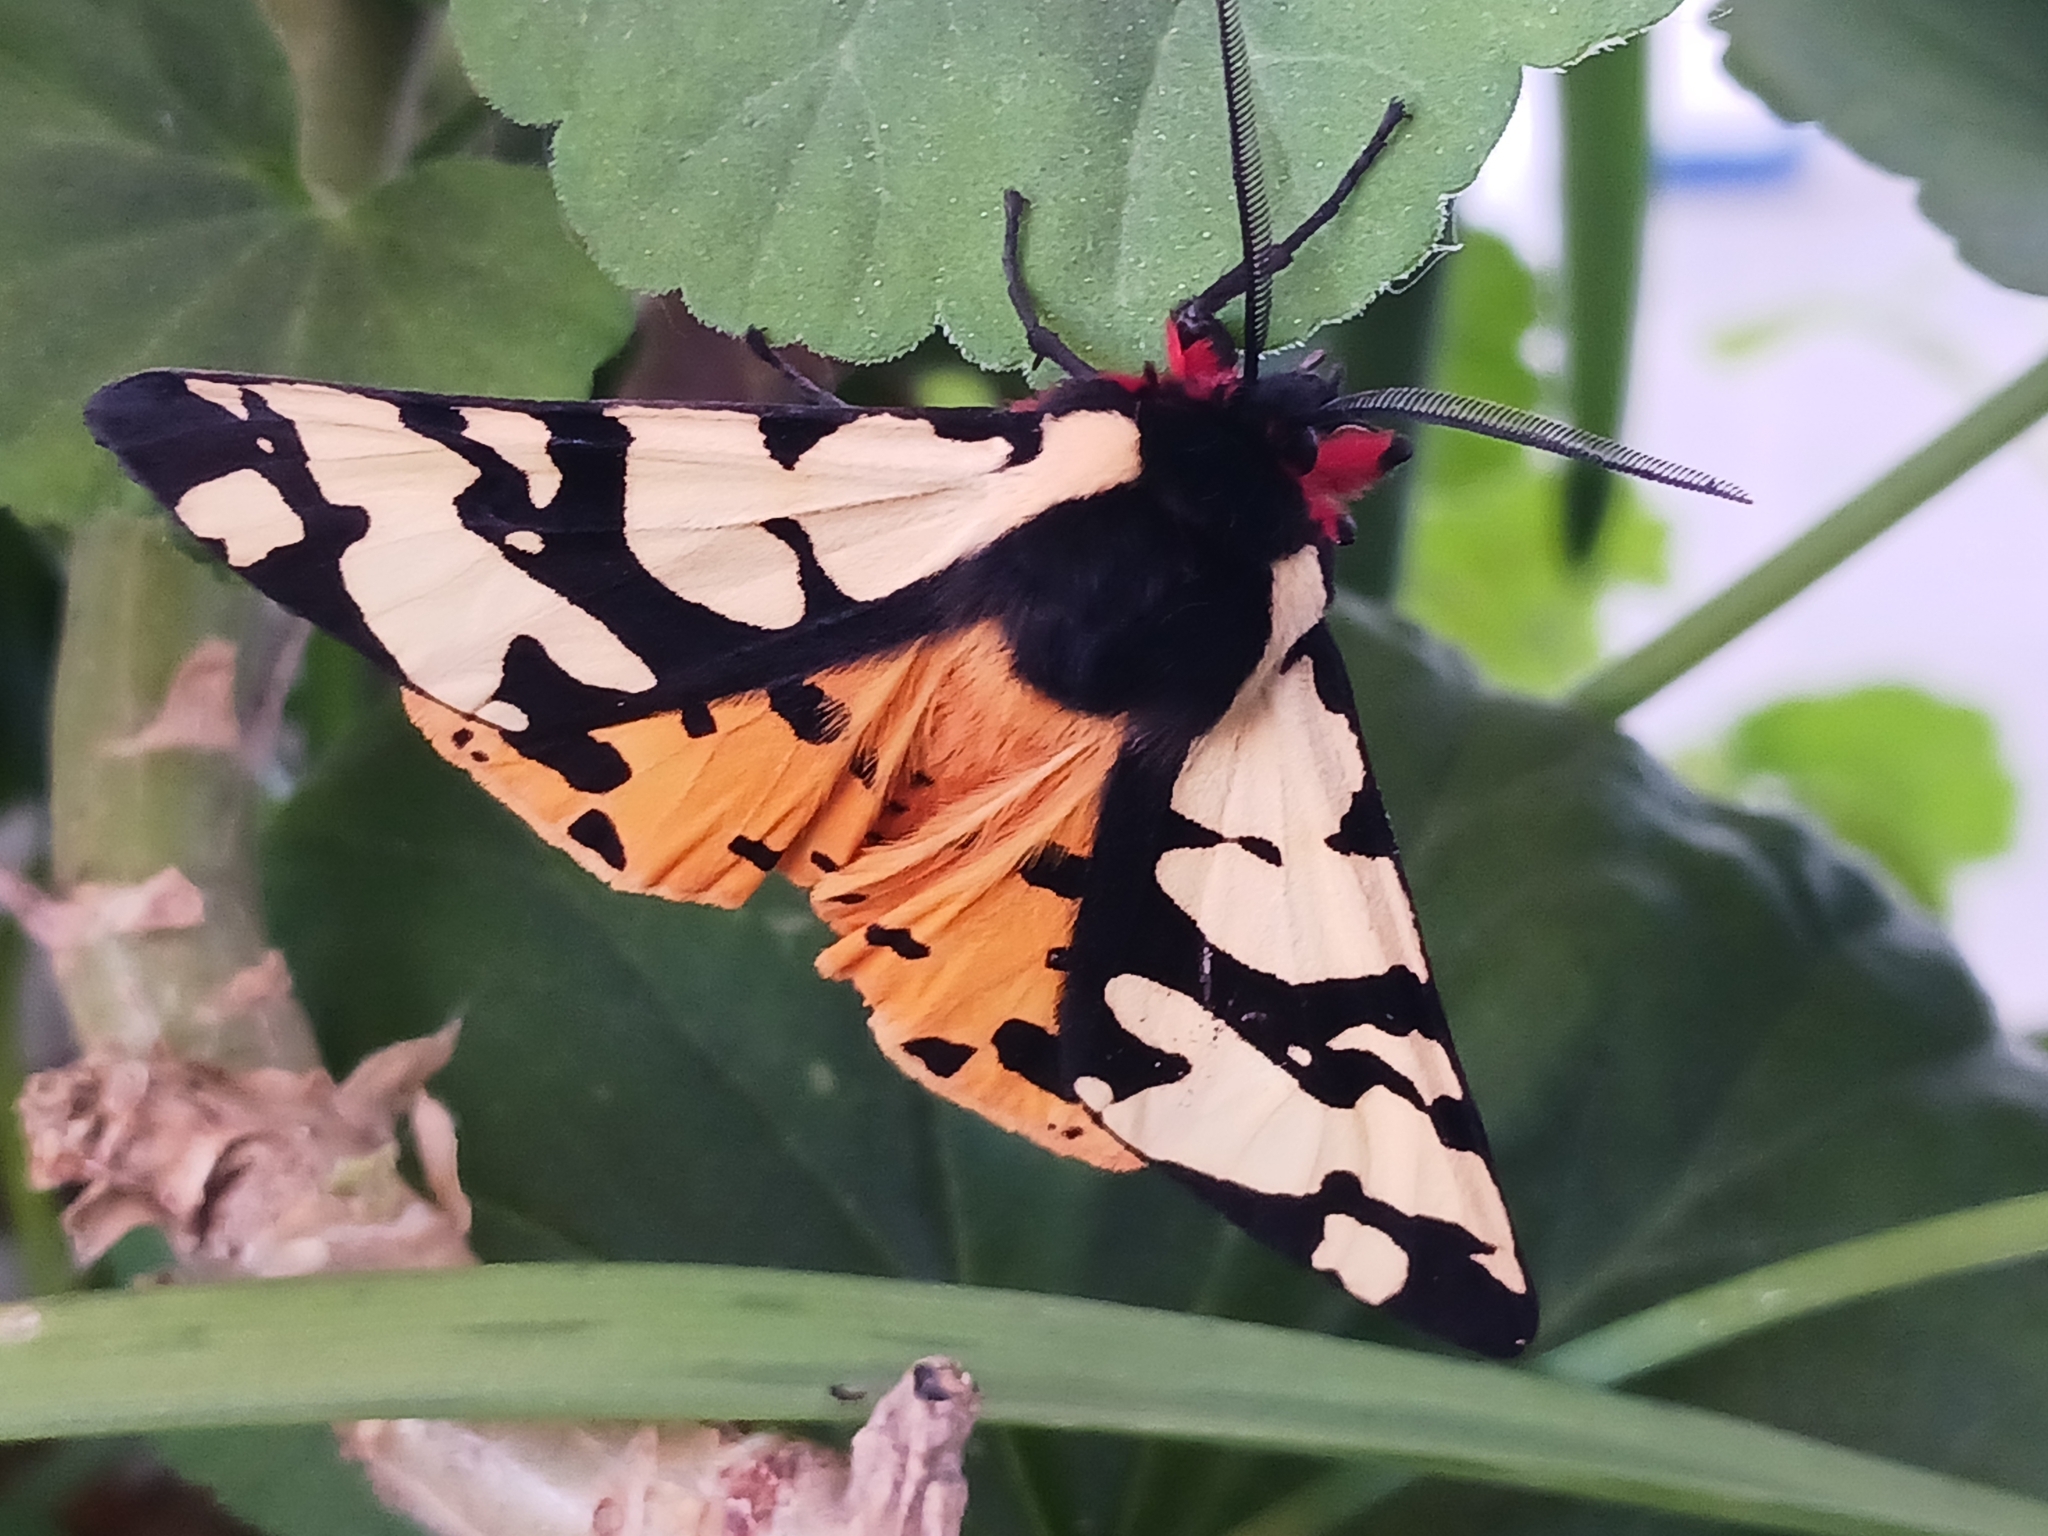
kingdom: Animalia
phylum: Arthropoda
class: Insecta
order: Lepidoptera
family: Erebidae
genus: Epicallia
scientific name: Epicallia villica
